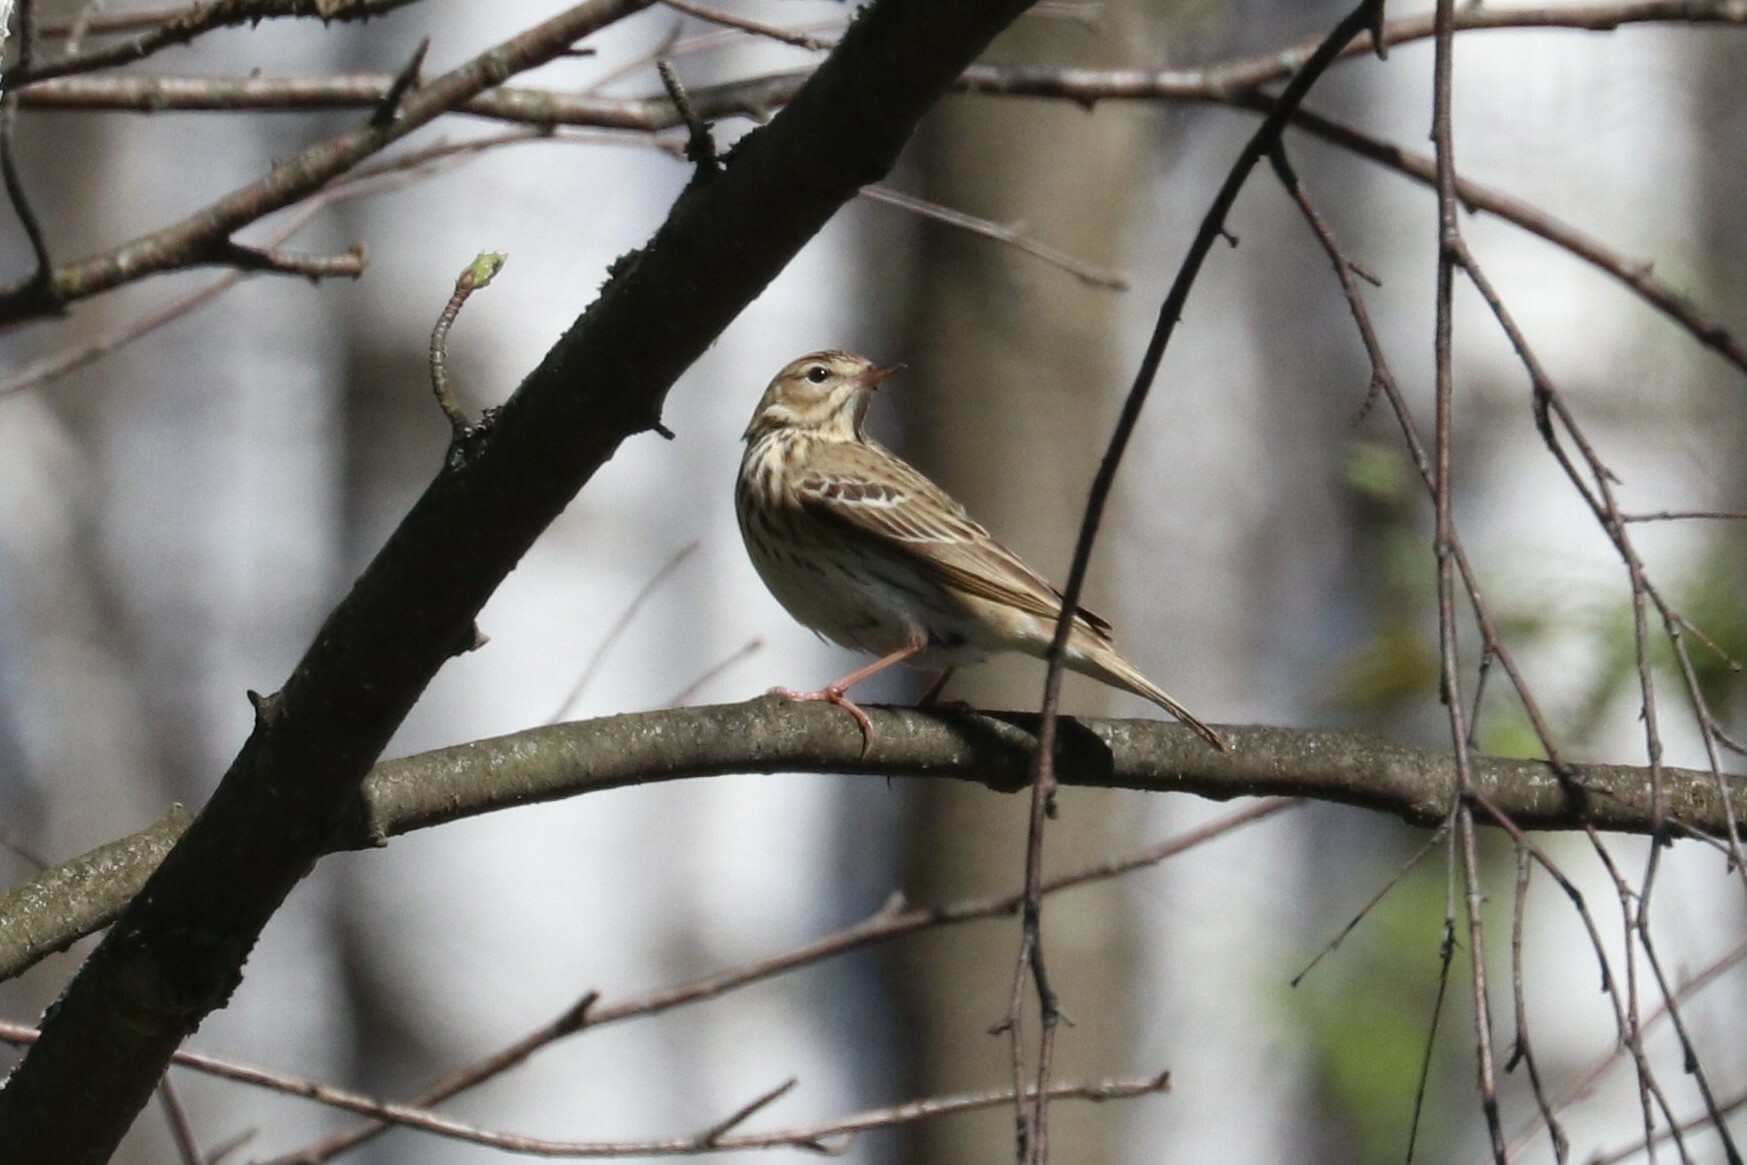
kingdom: Animalia
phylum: Chordata
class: Aves
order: Passeriformes
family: Motacillidae
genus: Anthus
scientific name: Anthus trivialis
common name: Tree pipit
